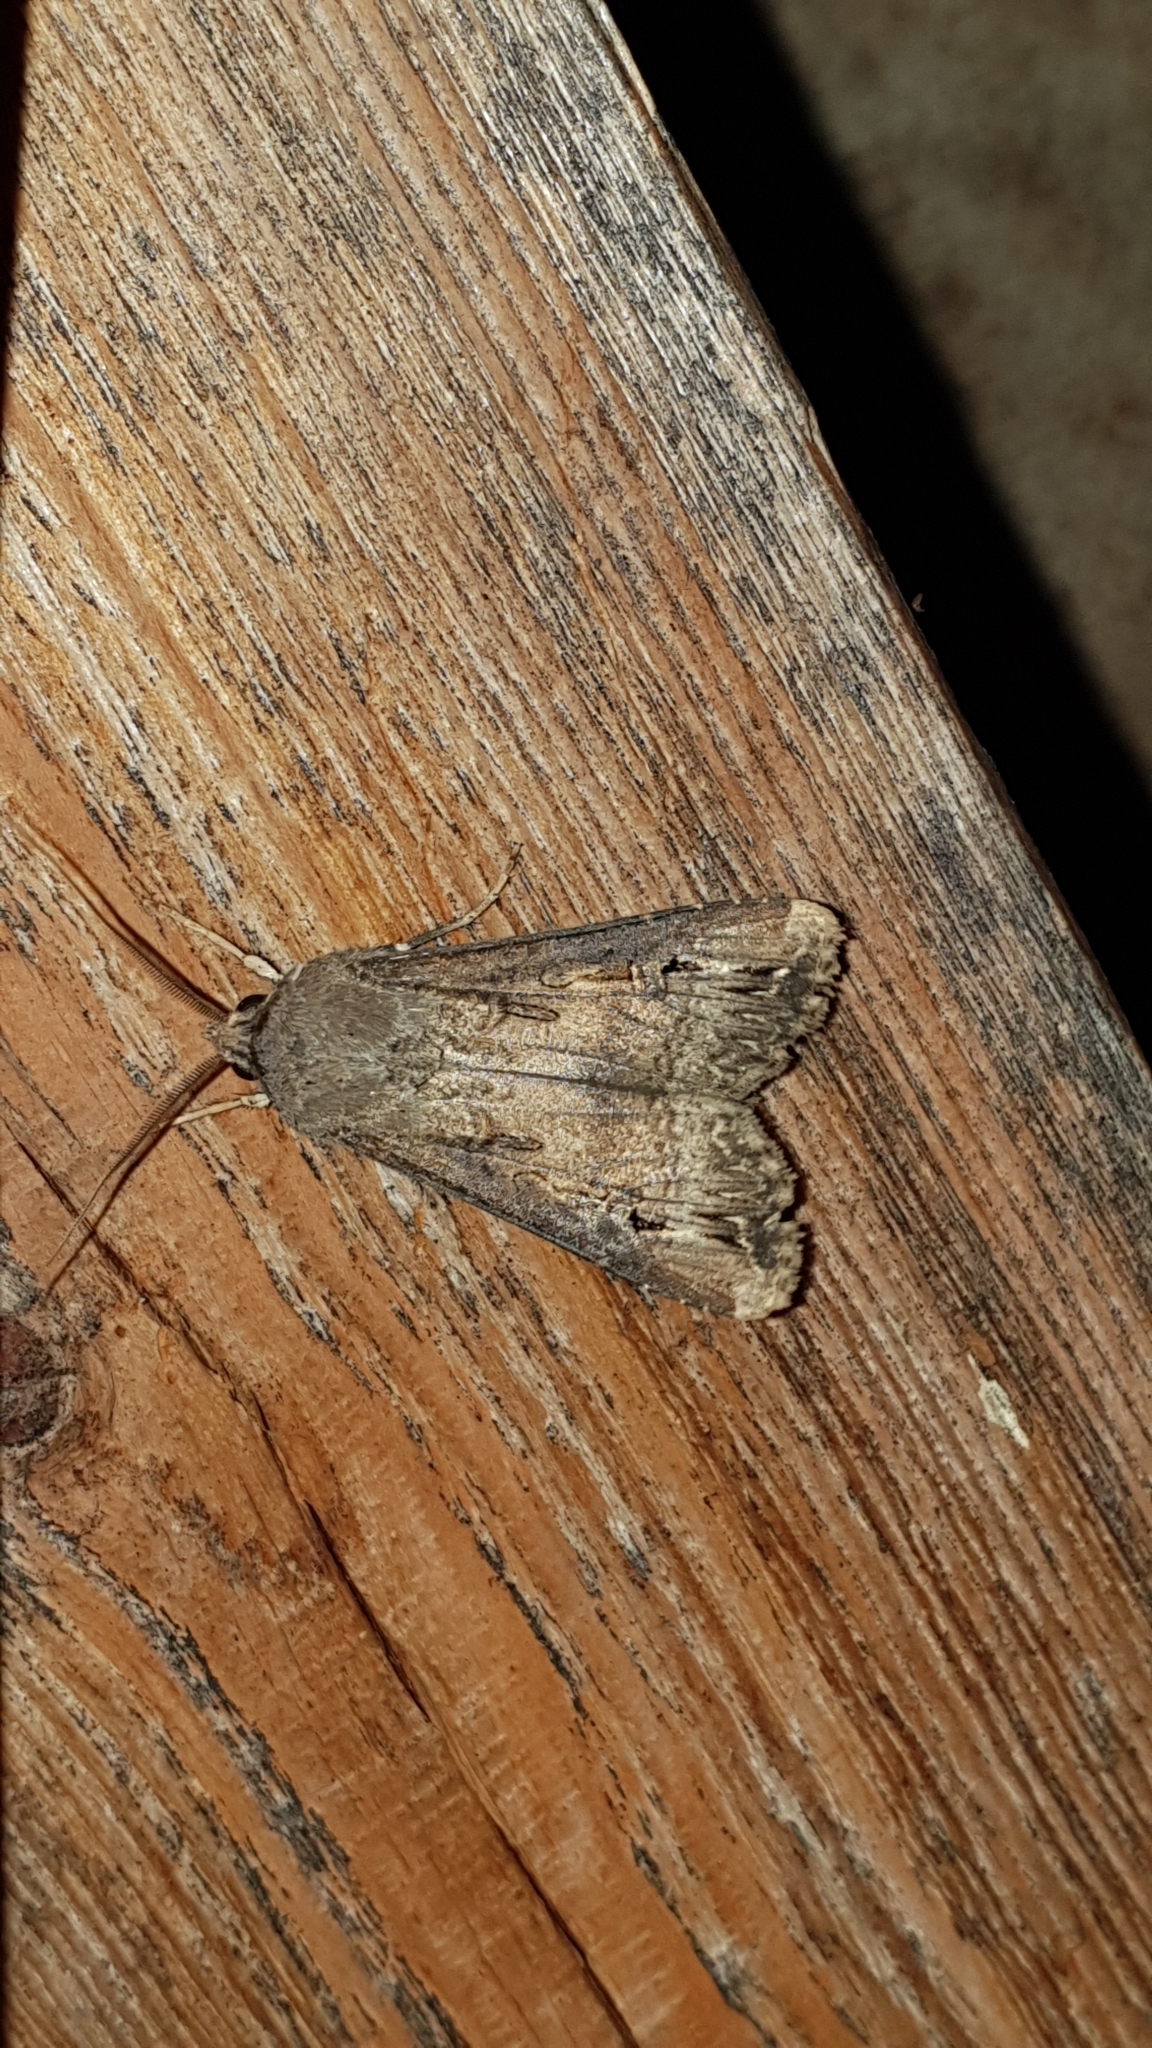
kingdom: Animalia
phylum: Arthropoda
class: Insecta
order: Lepidoptera
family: Noctuidae
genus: Agrotis
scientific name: Agrotis ipsilon
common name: Dark sword-grass
